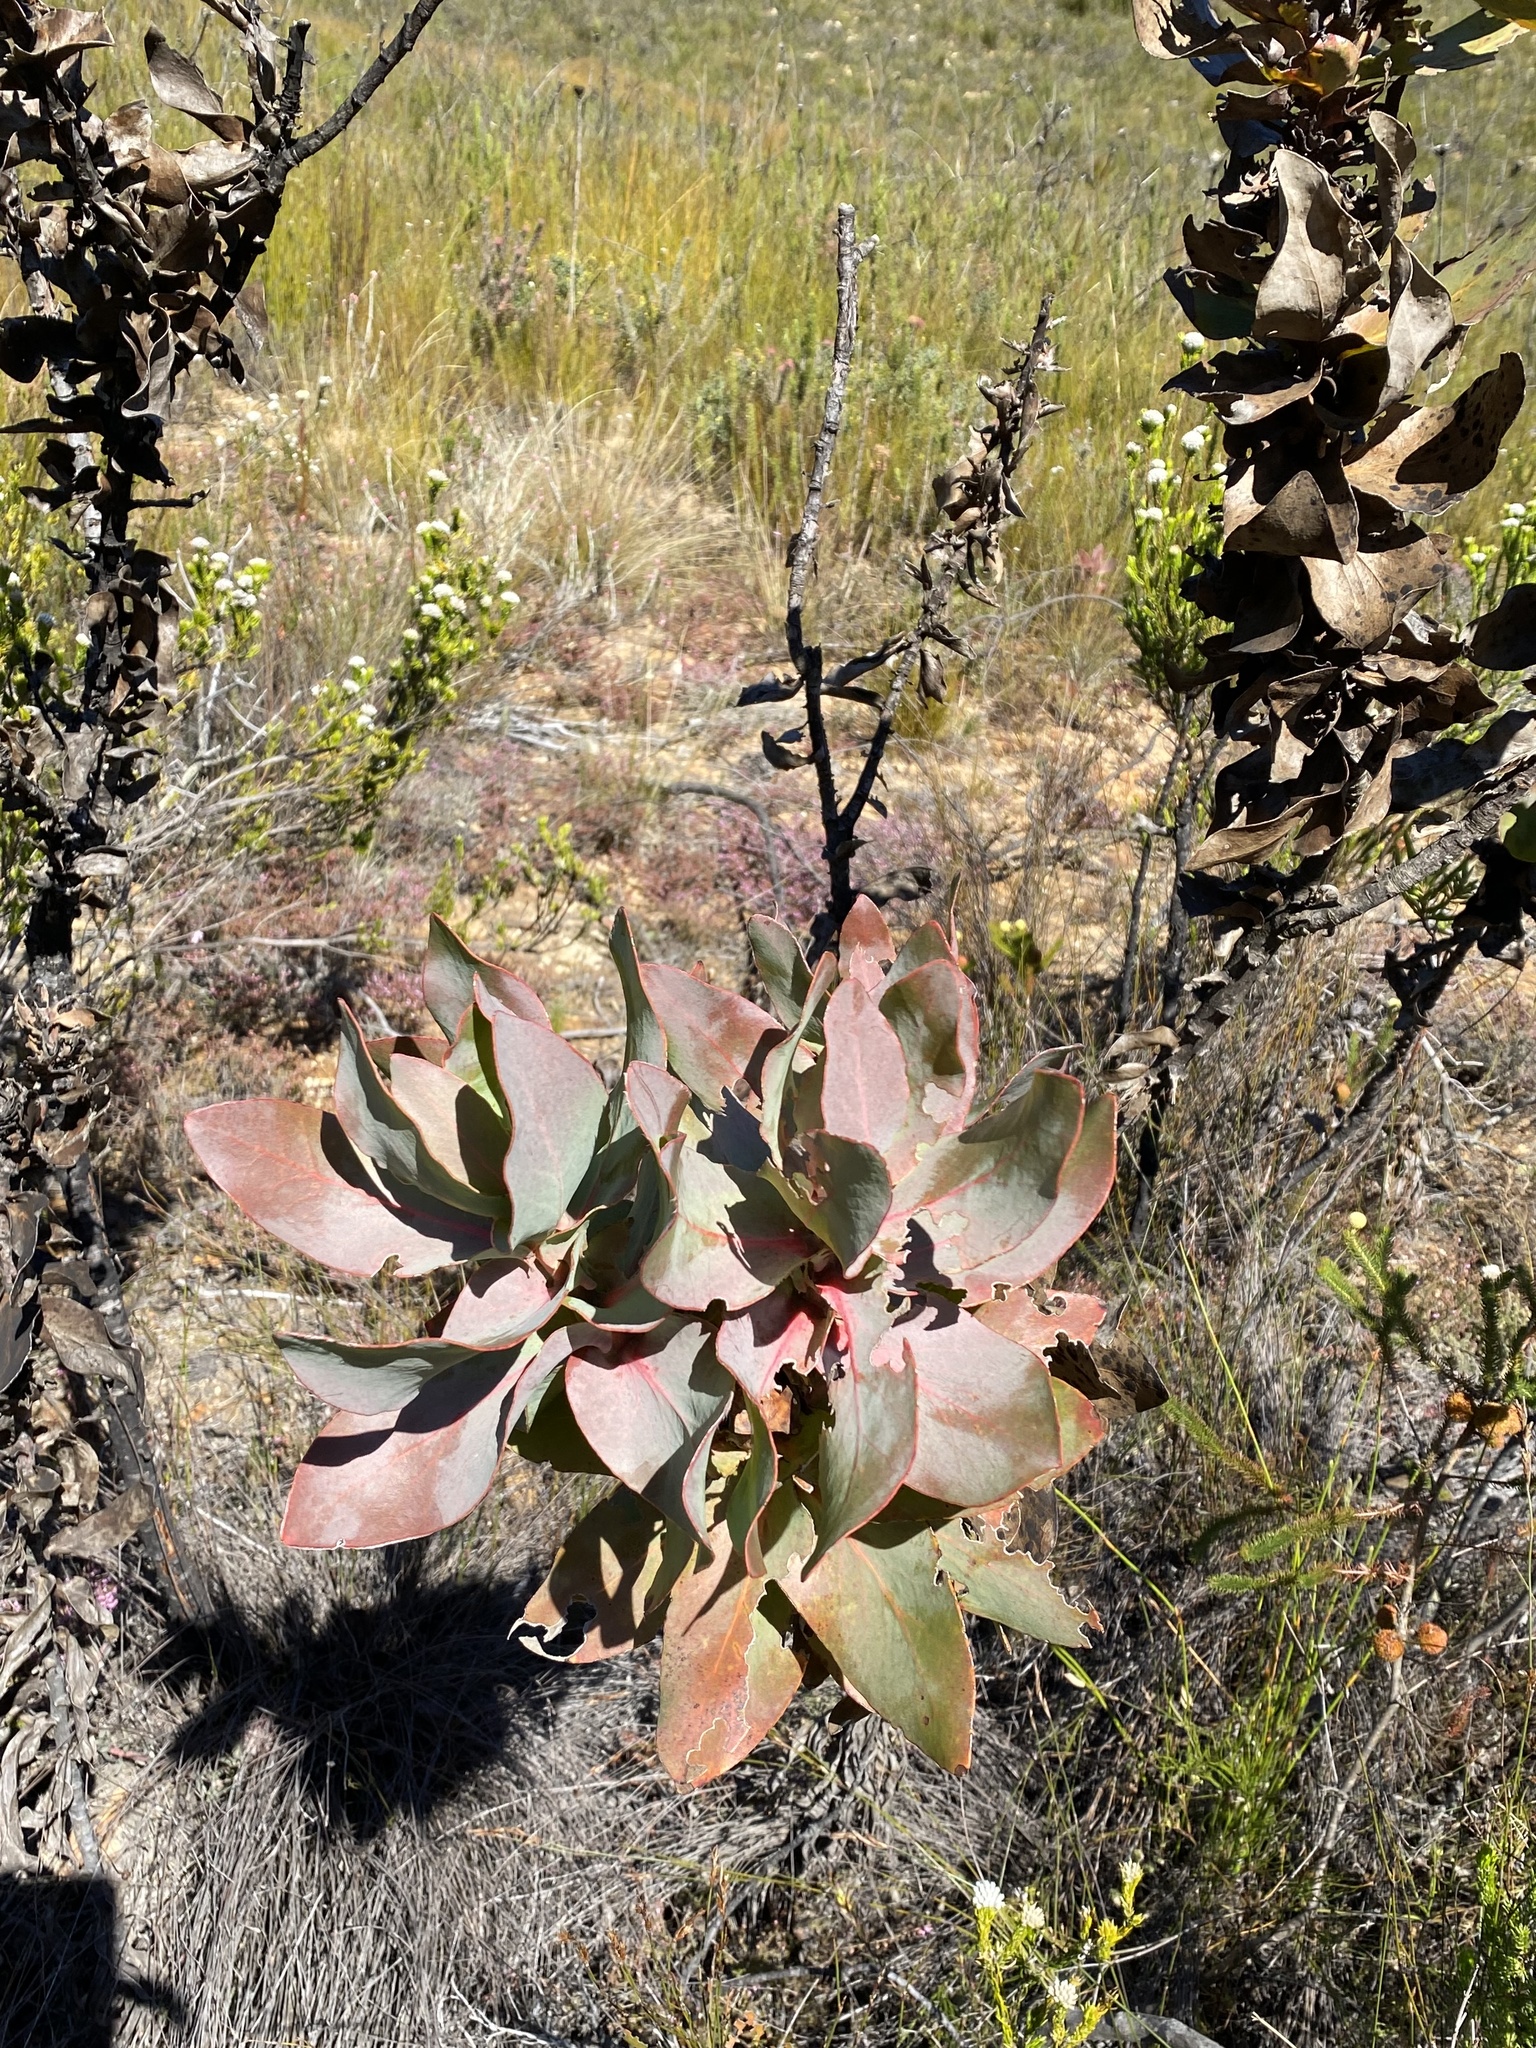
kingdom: Plantae
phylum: Tracheophyta
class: Magnoliopsida
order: Proteales
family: Proteaceae
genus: Protea
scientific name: Protea eximia
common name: Broad-leaved sugarbush
